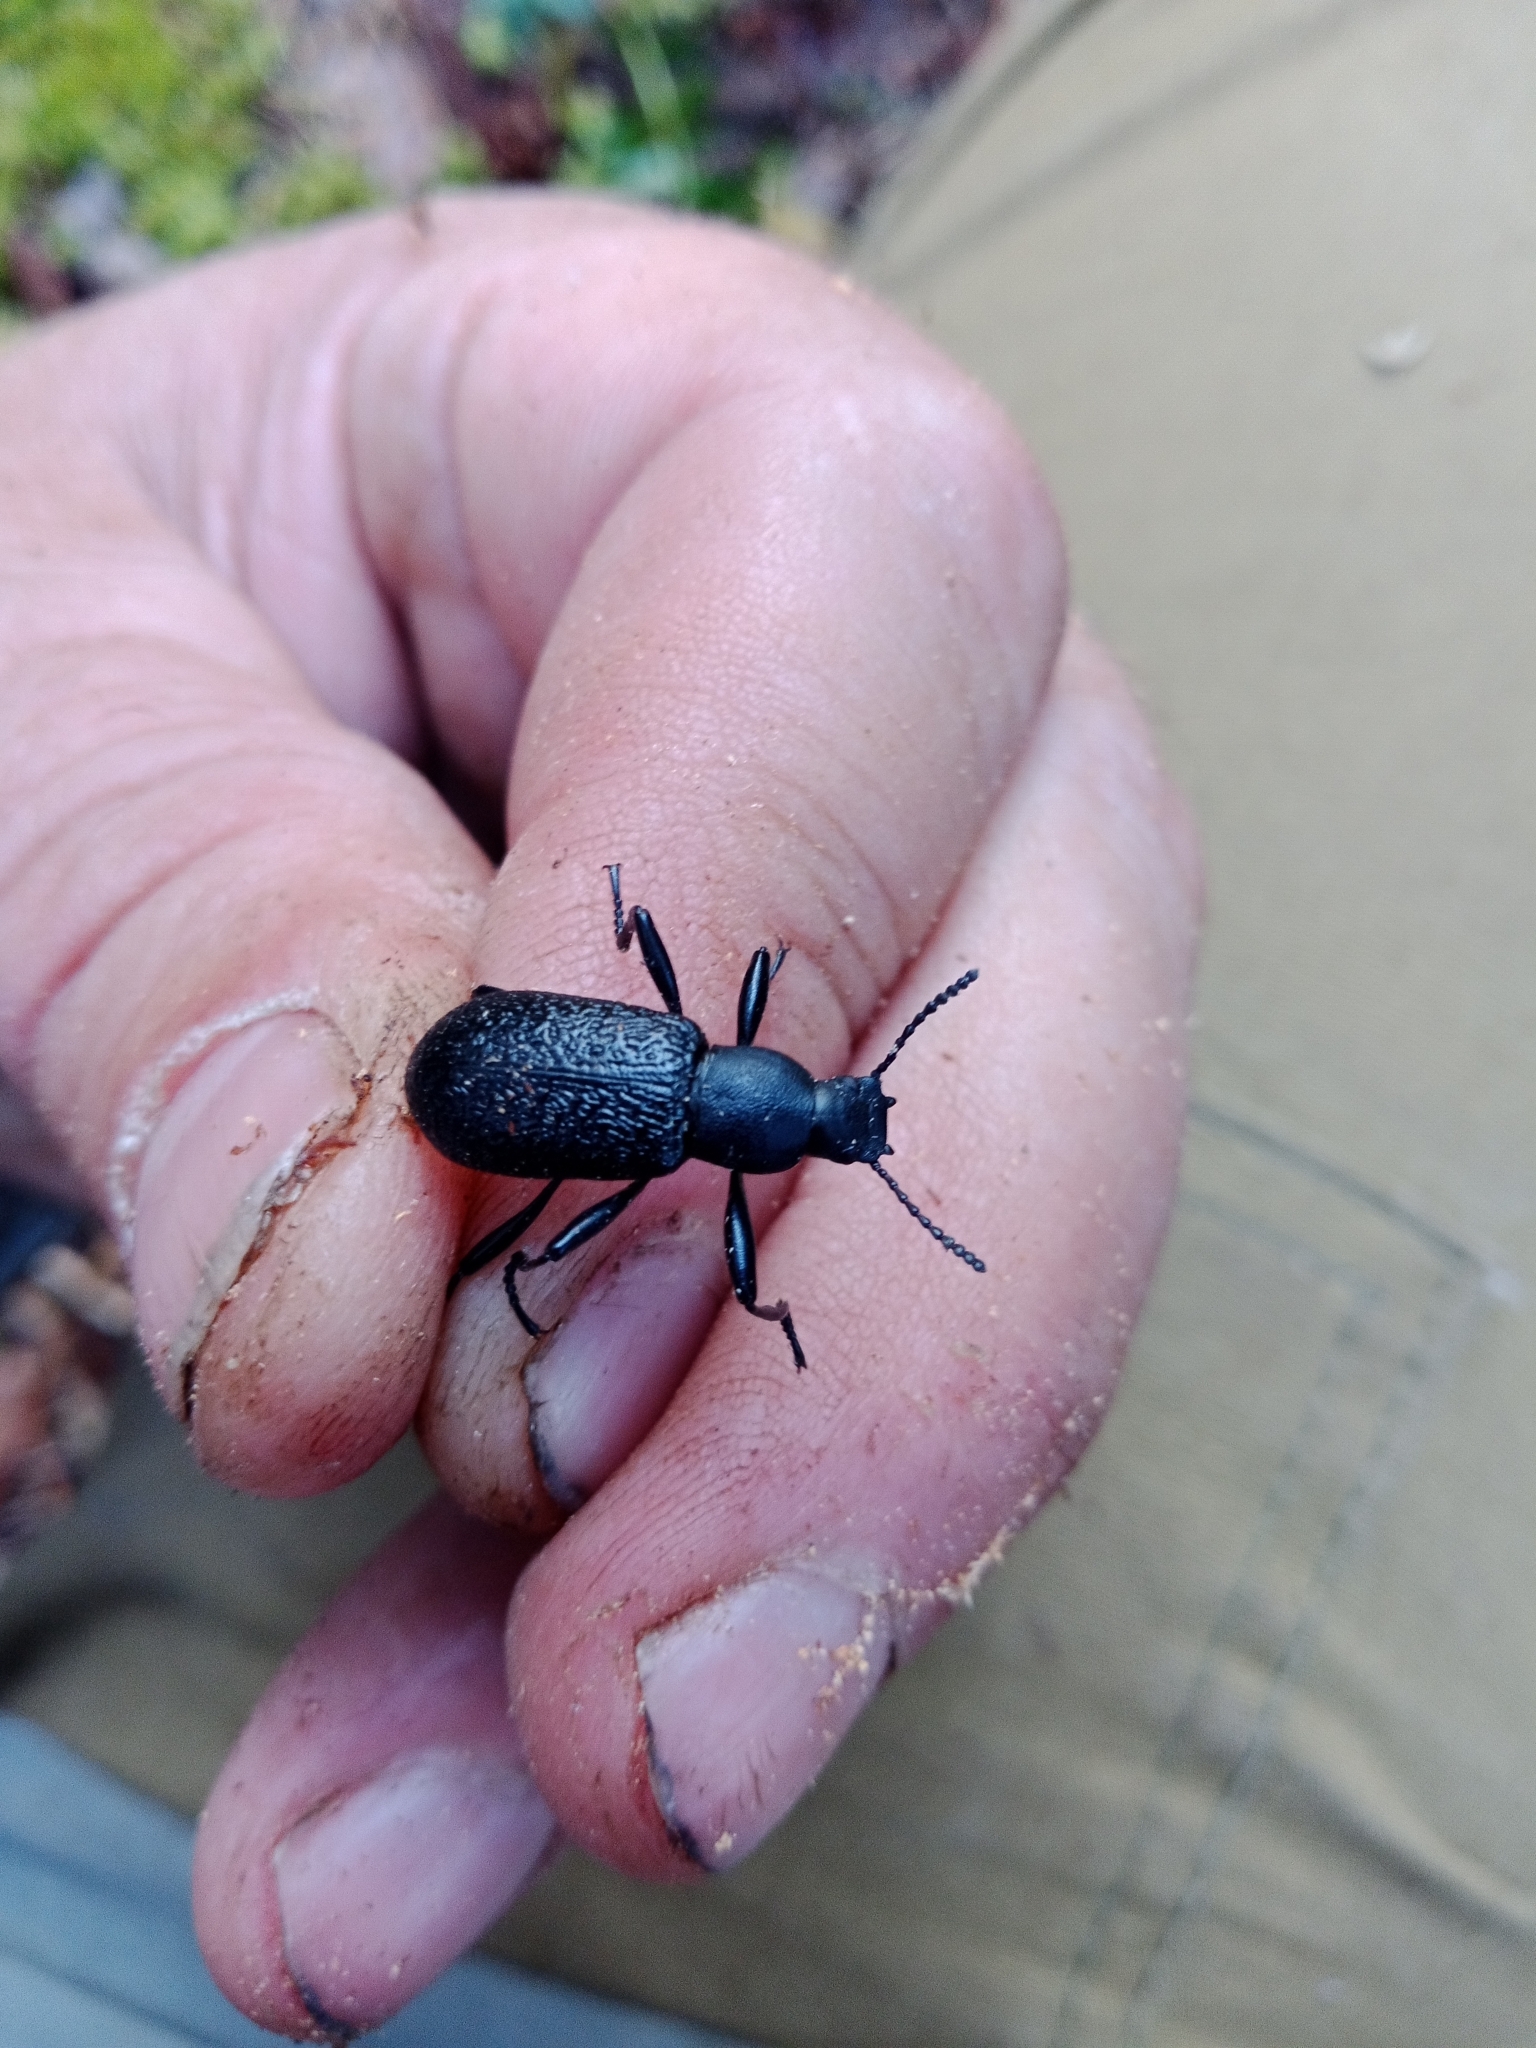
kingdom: Animalia
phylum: Arthropoda
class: Insecta
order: Coleoptera
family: Tenebrionidae
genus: Upis
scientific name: Upis ceramboides
